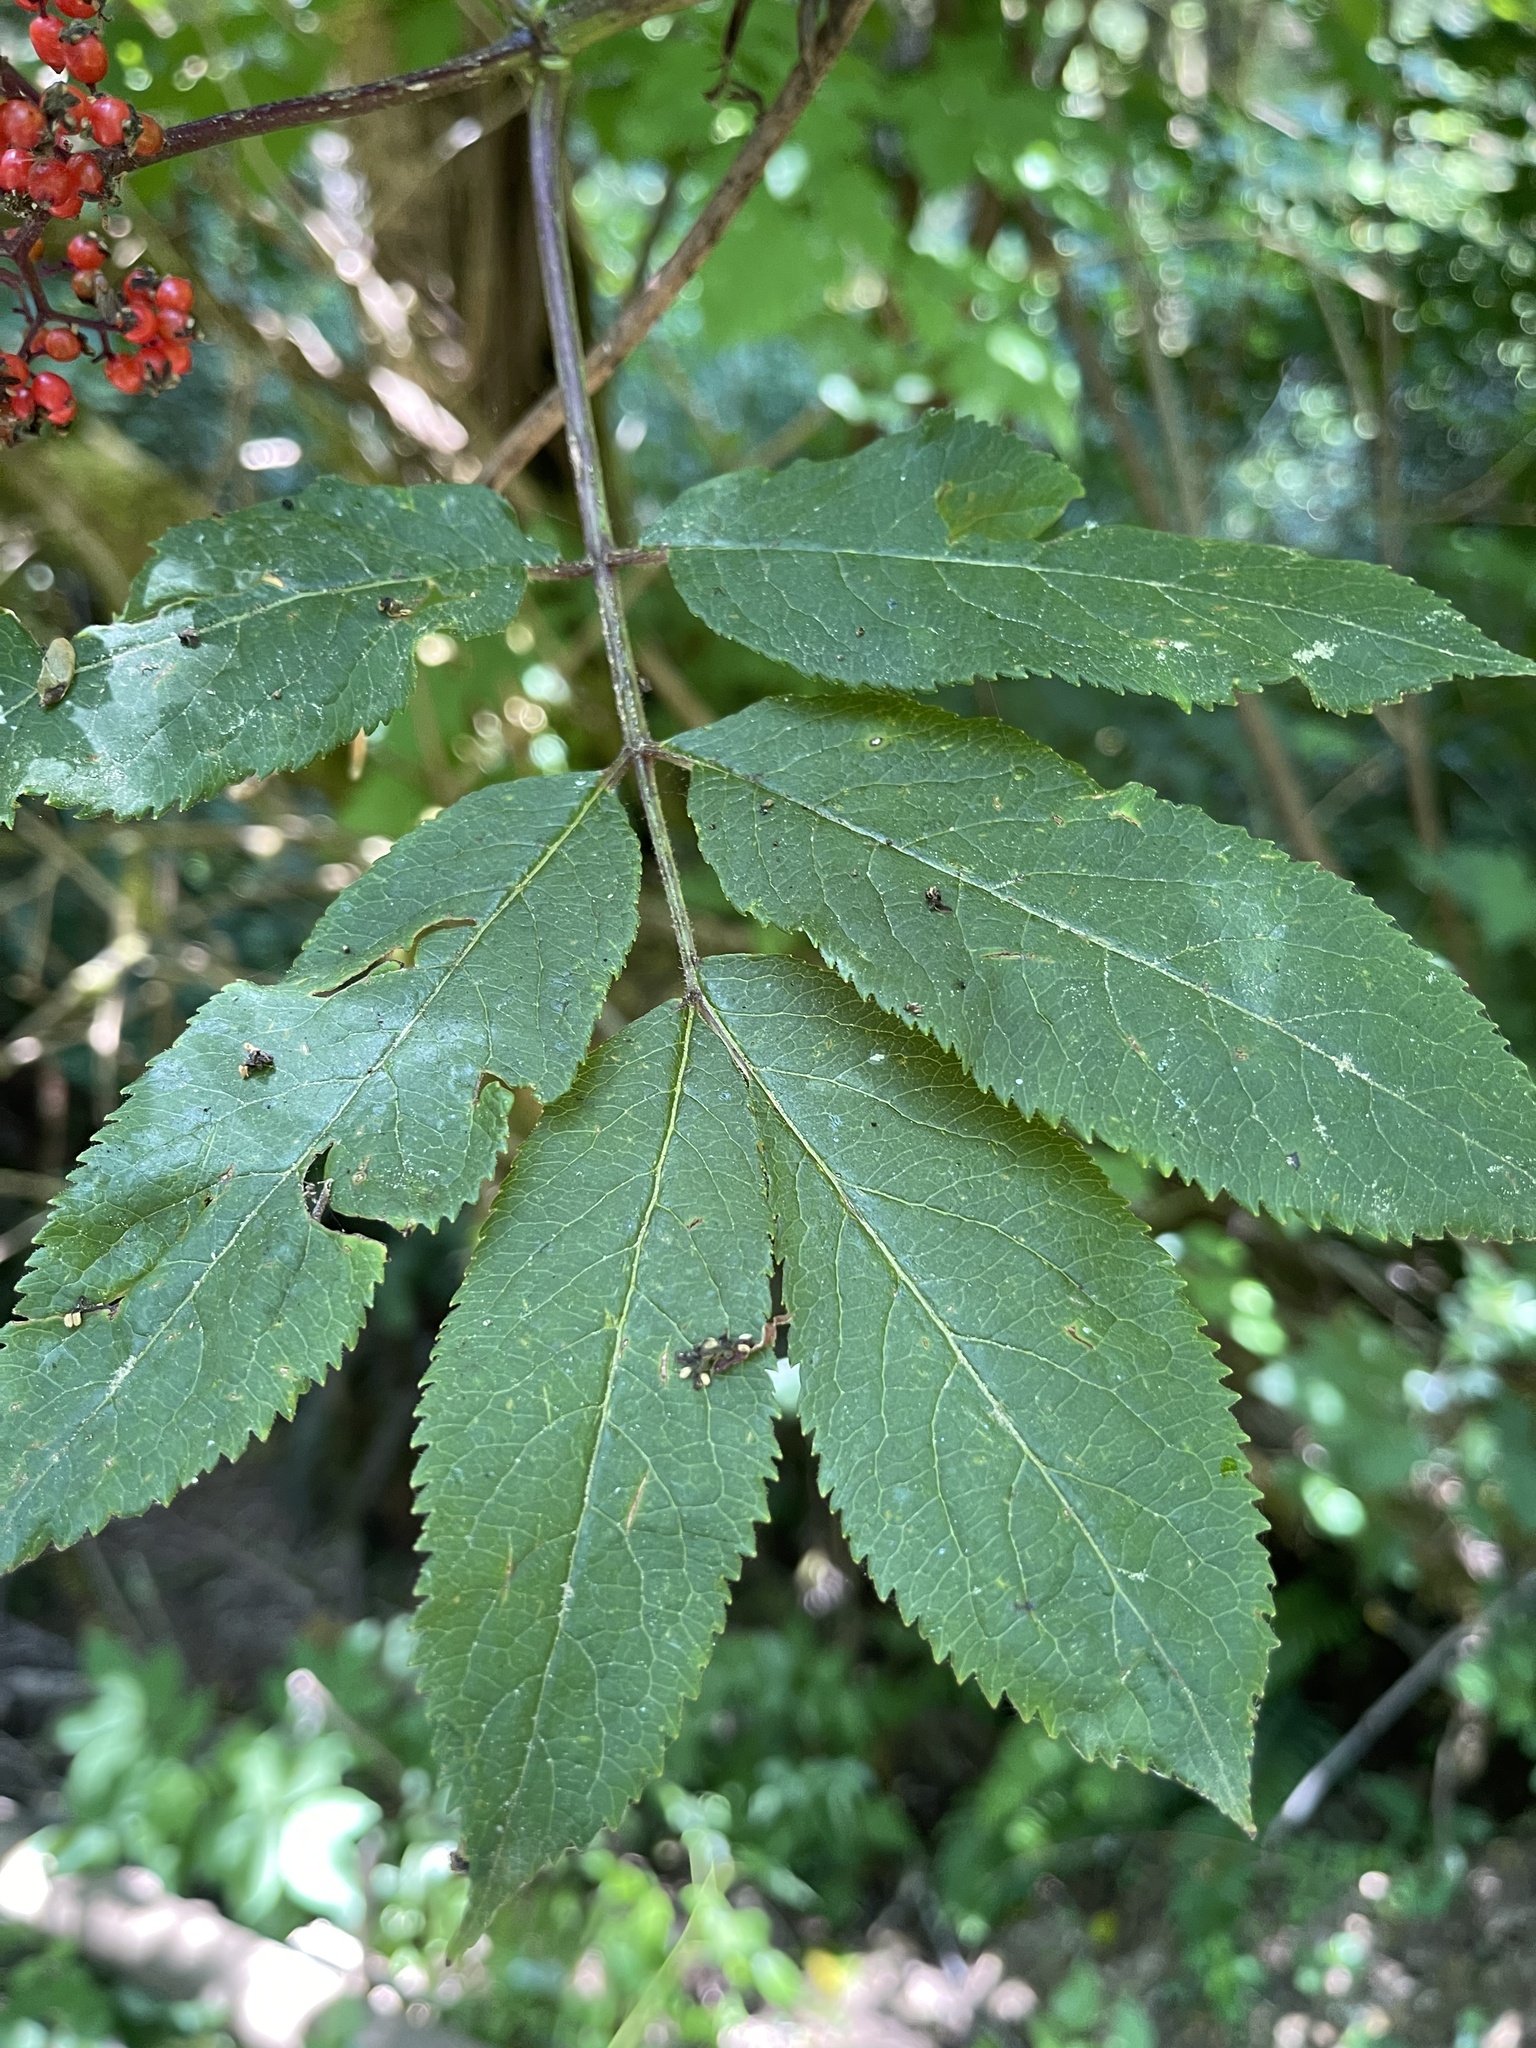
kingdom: Plantae
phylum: Tracheophyta
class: Magnoliopsida
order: Dipsacales
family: Viburnaceae
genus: Sambucus
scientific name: Sambucus racemosa
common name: Red-berried elder
